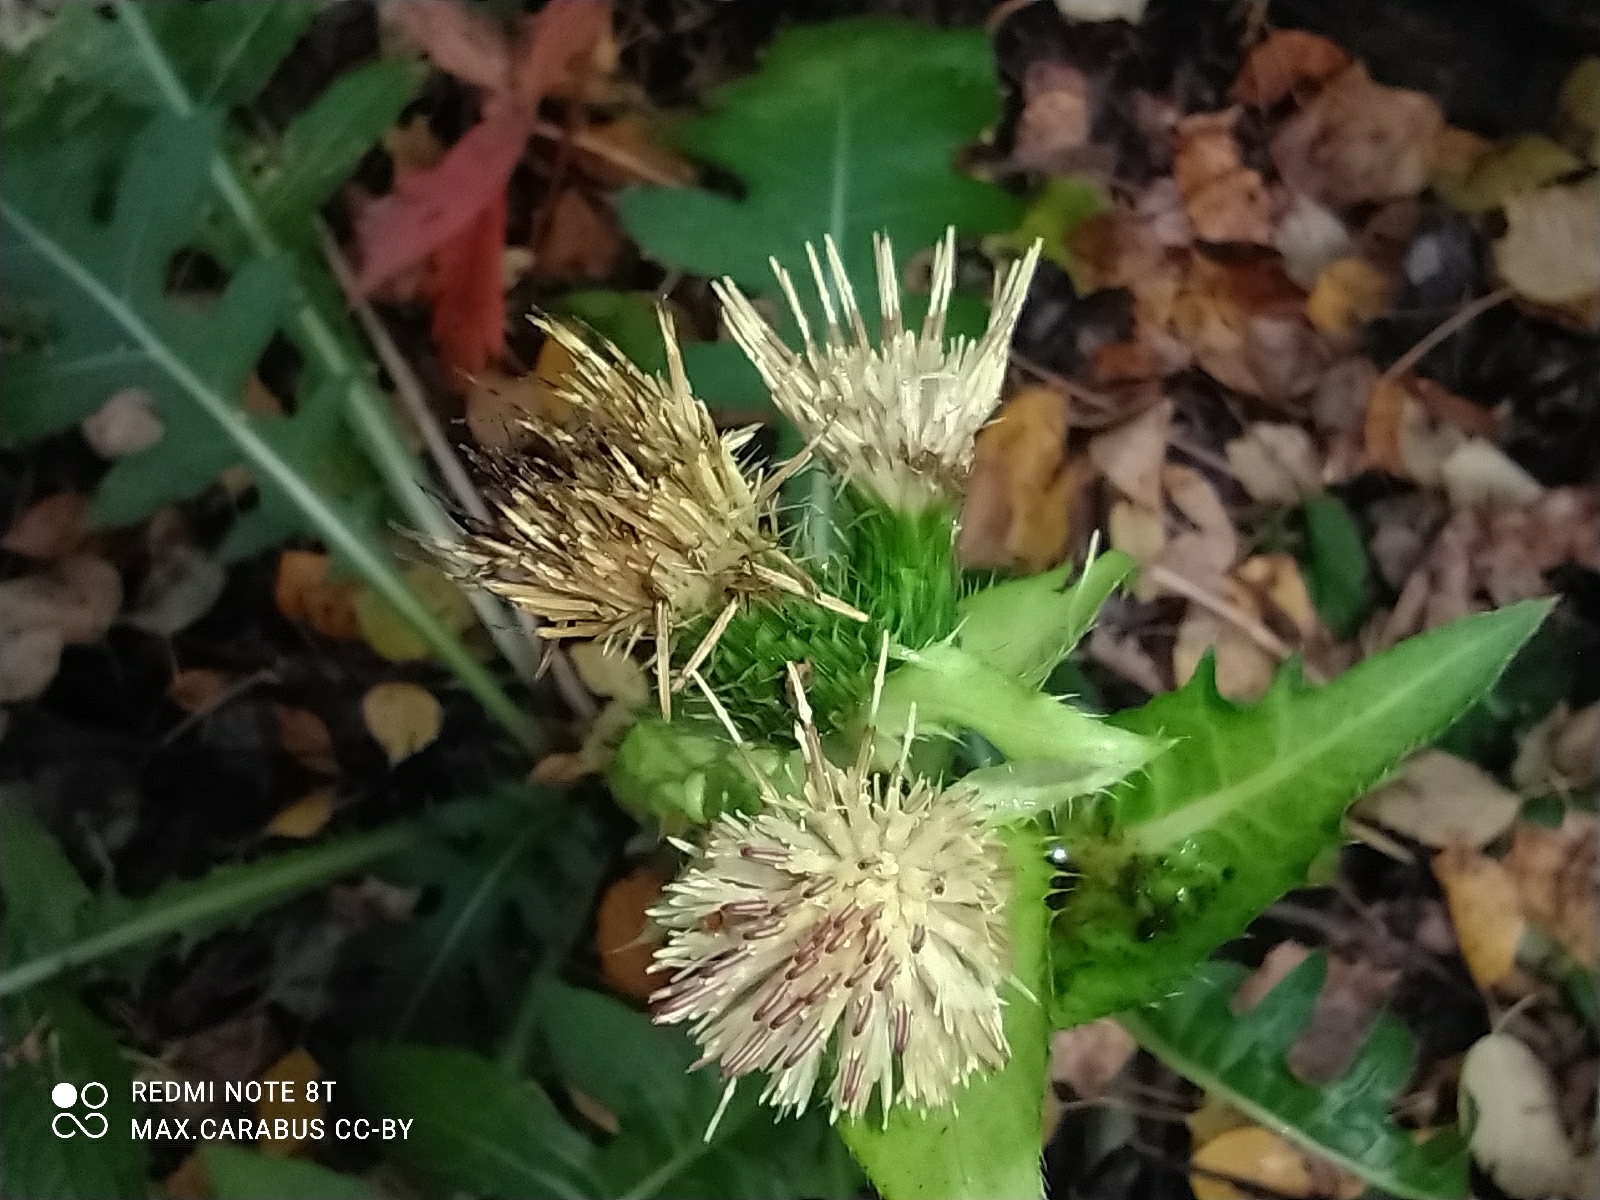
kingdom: Plantae
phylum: Tracheophyta
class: Magnoliopsida
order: Asterales
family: Asteraceae
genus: Cirsium
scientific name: Cirsium oleraceum
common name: Cabbage thistle
